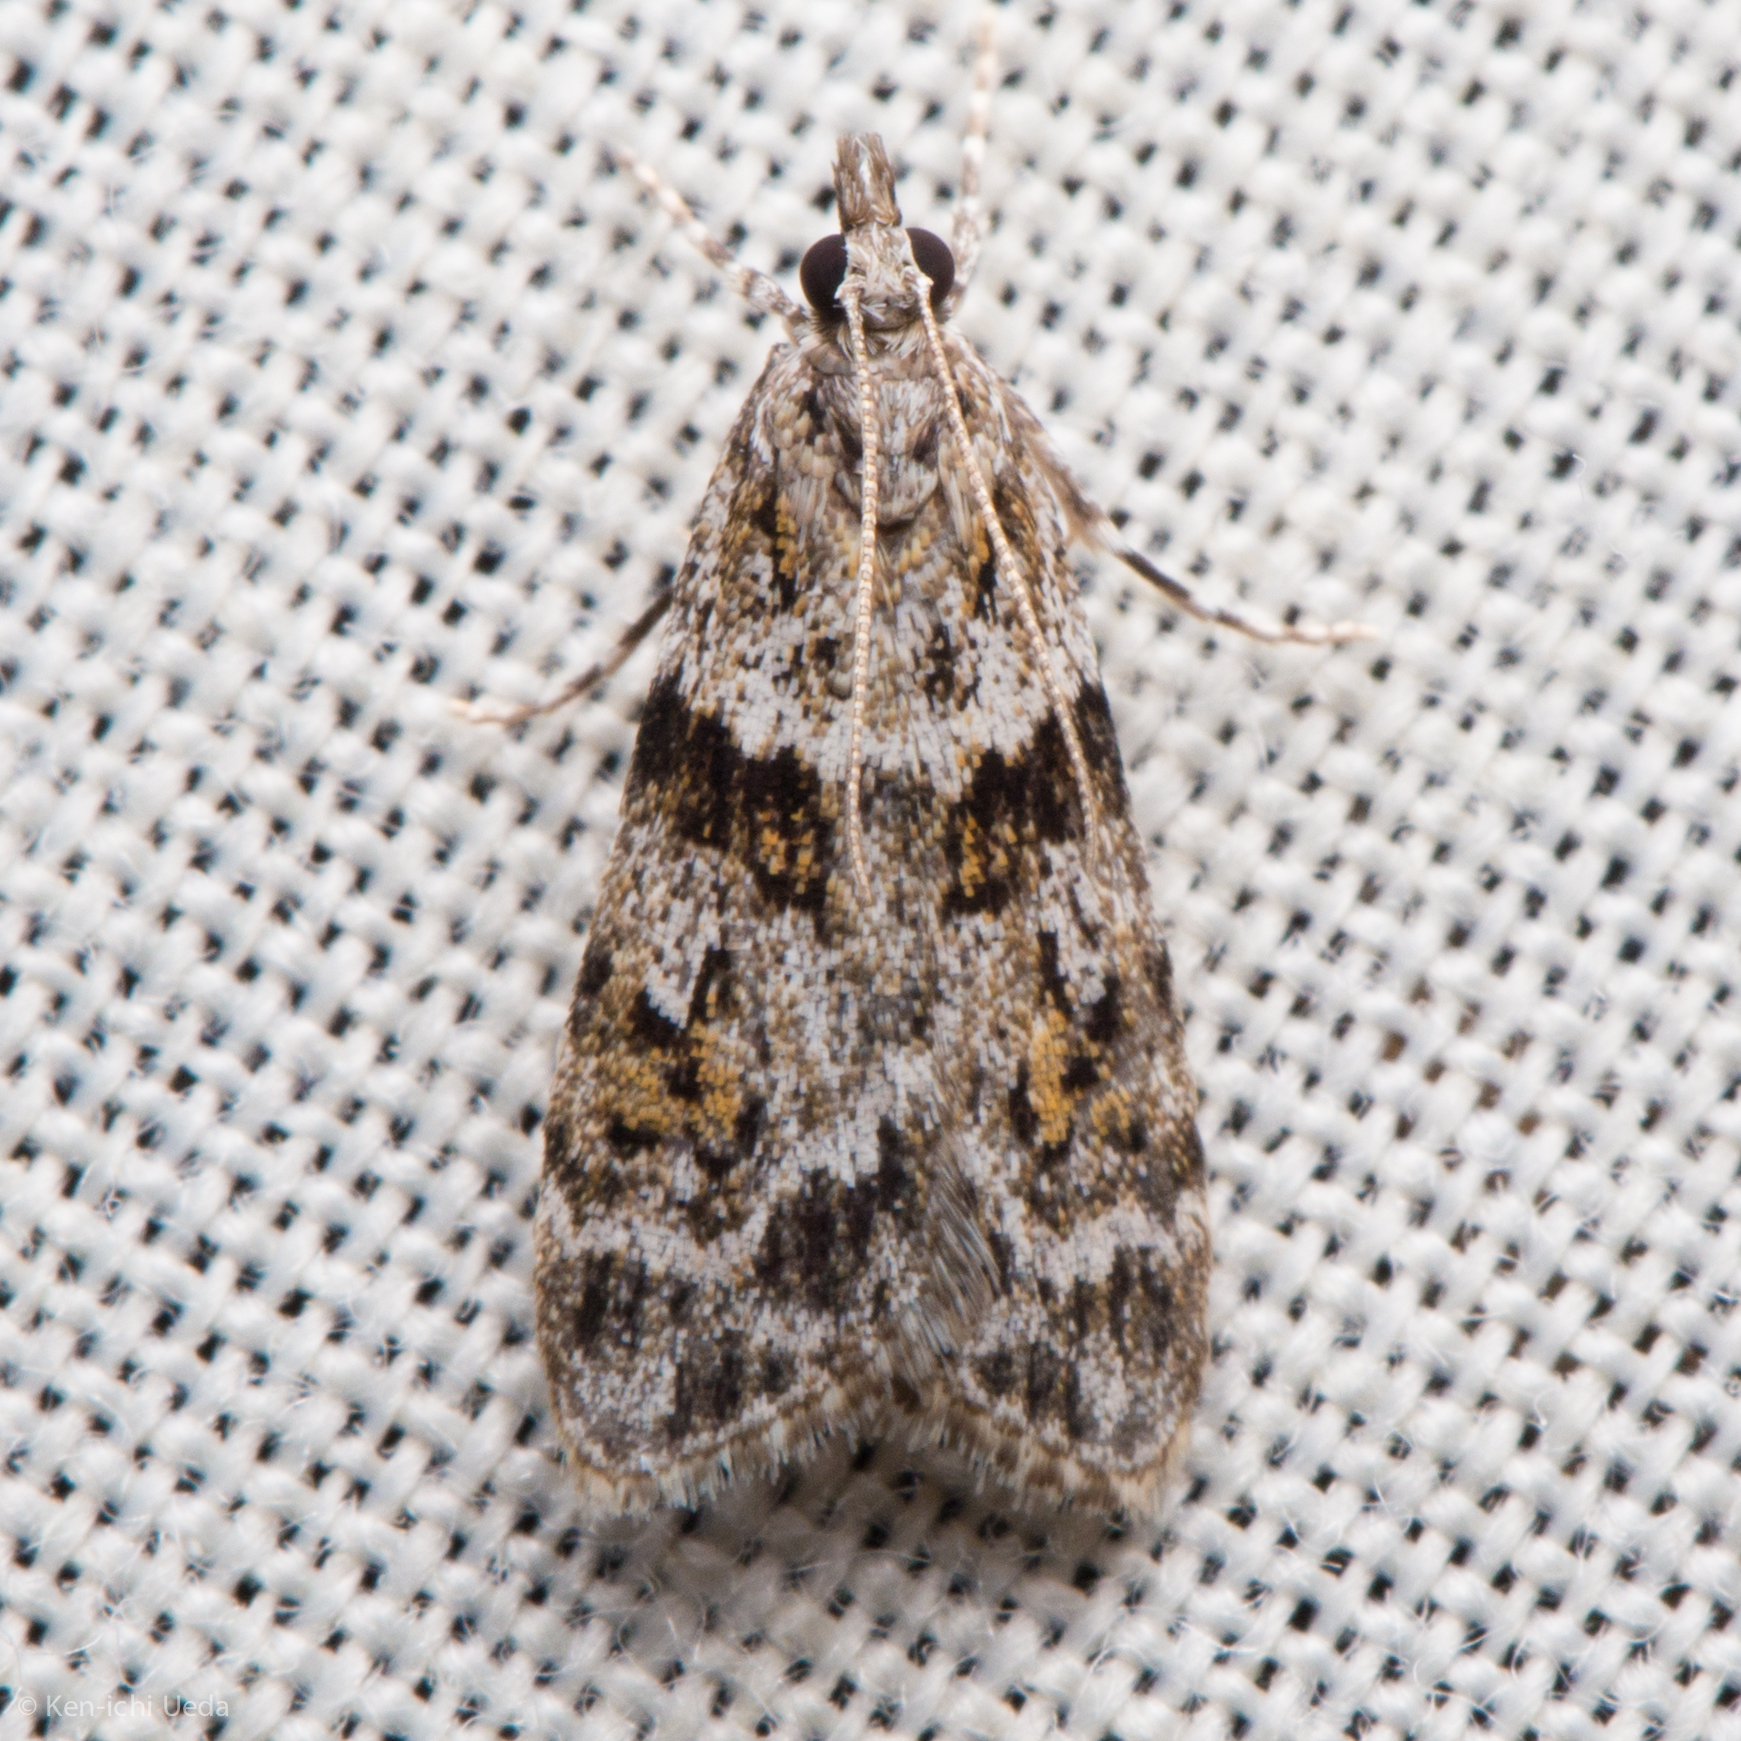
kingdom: Animalia
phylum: Arthropoda
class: Insecta
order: Lepidoptera
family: Crambidae
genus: Scoparia
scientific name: Scoparia biplagialis
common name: Double-striped scoparia moth
